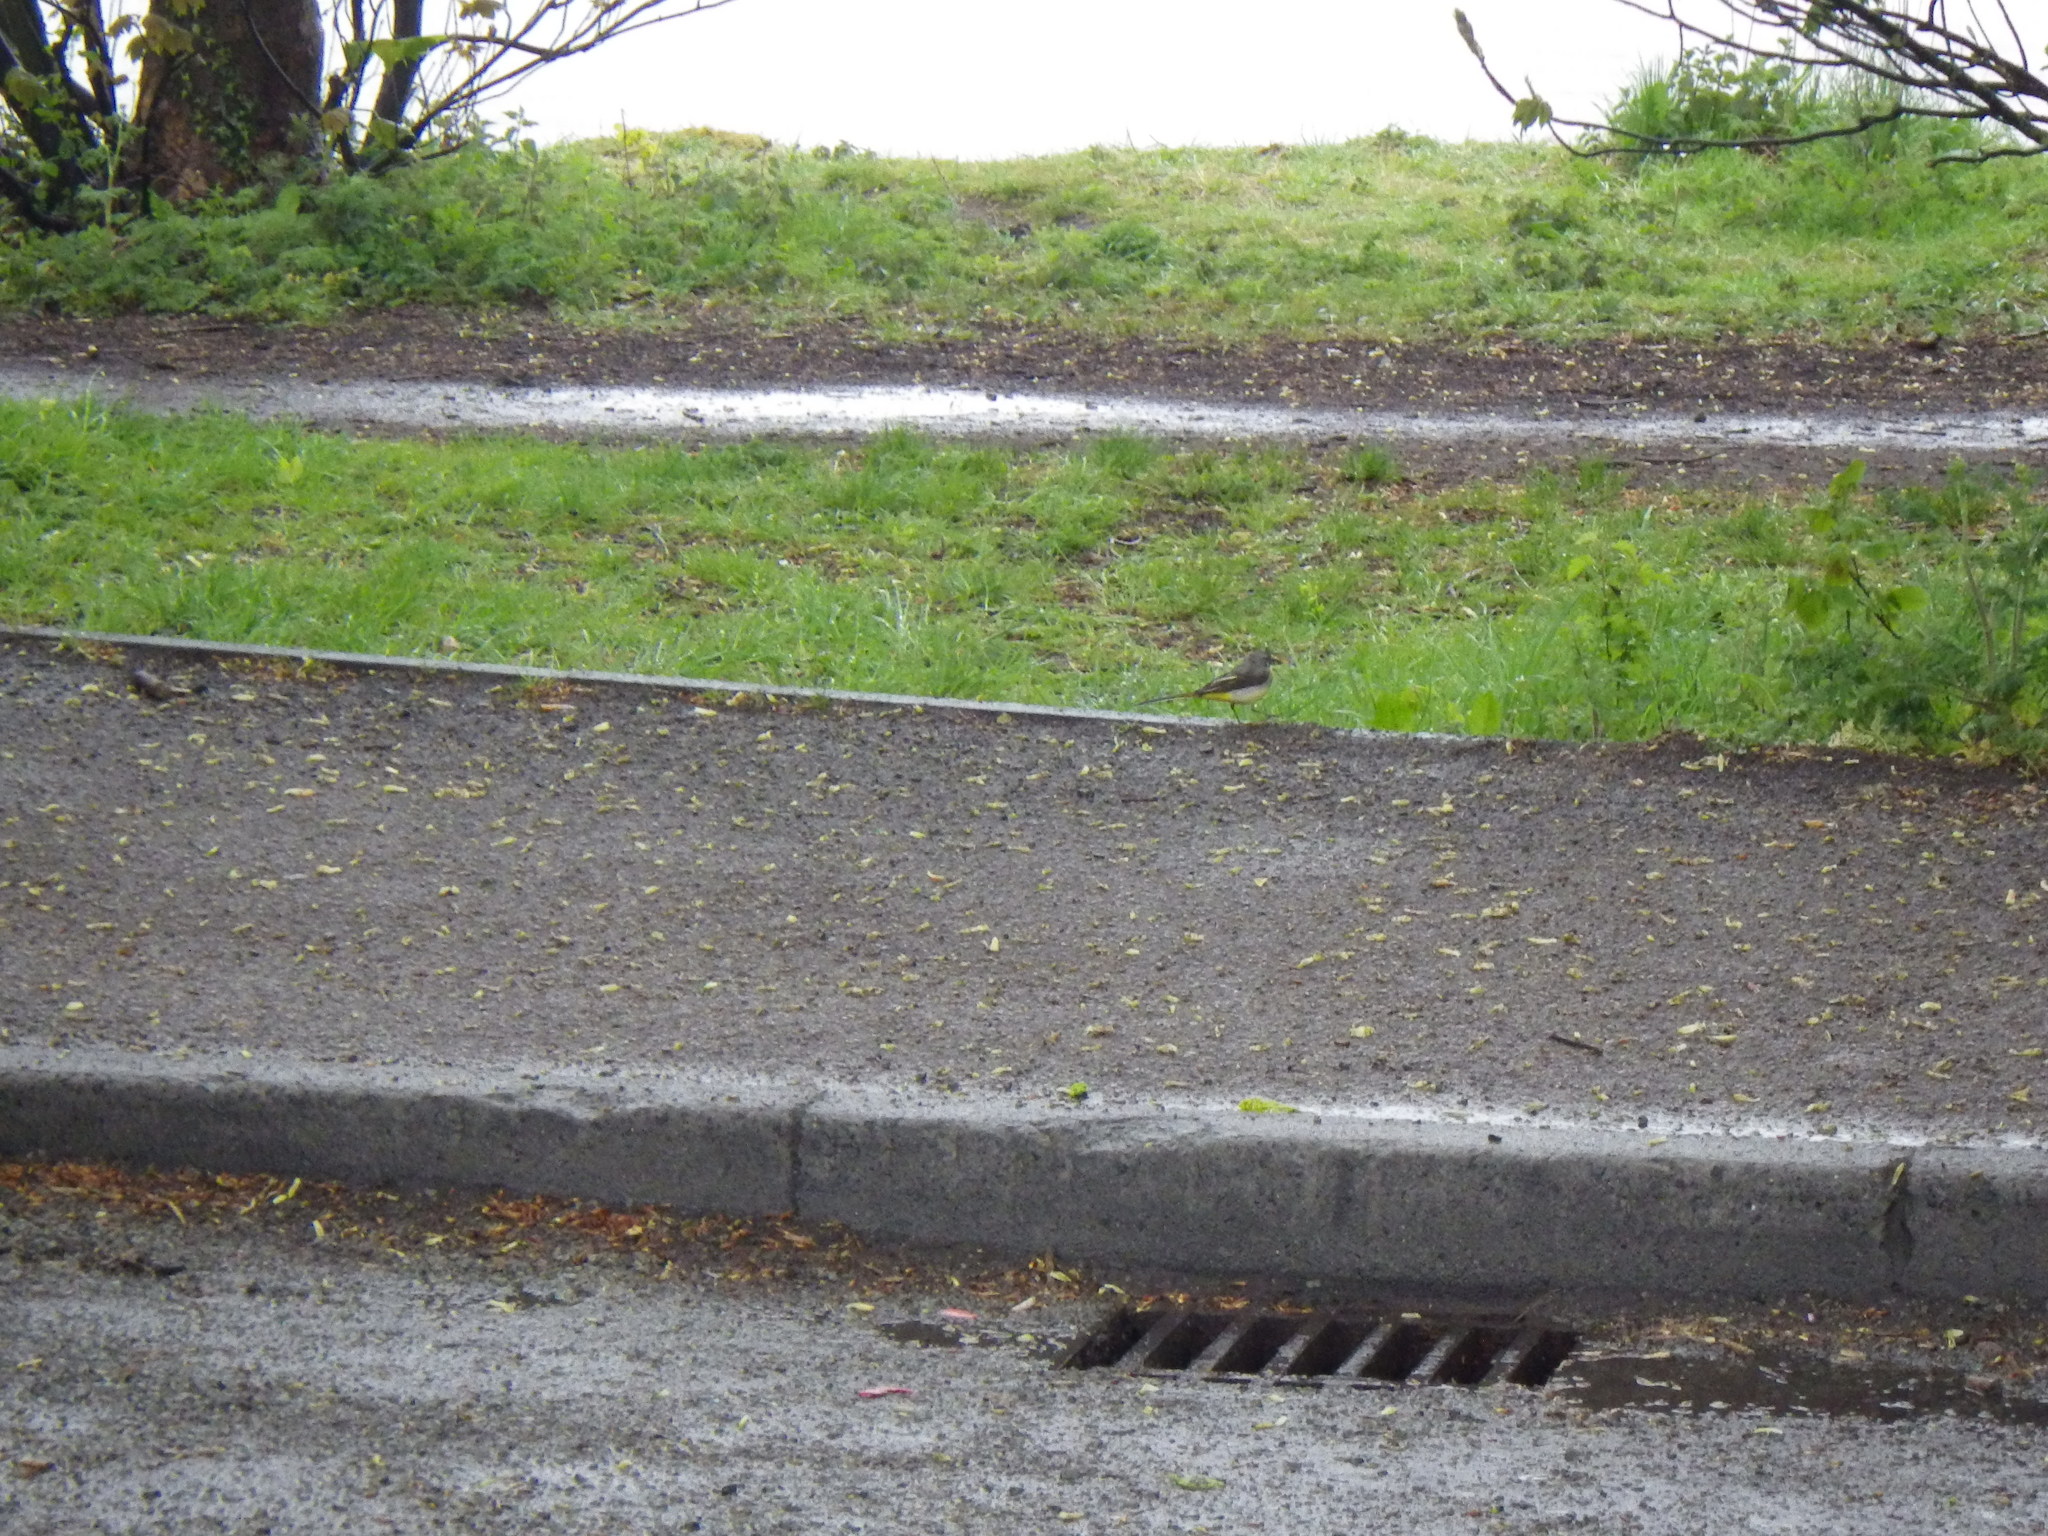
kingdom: Animalia
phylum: Chordata
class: Aves
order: Passeriformes
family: Motacillidae
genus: Motacilla
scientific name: Motacilla cinerea
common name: Grey wagtail
